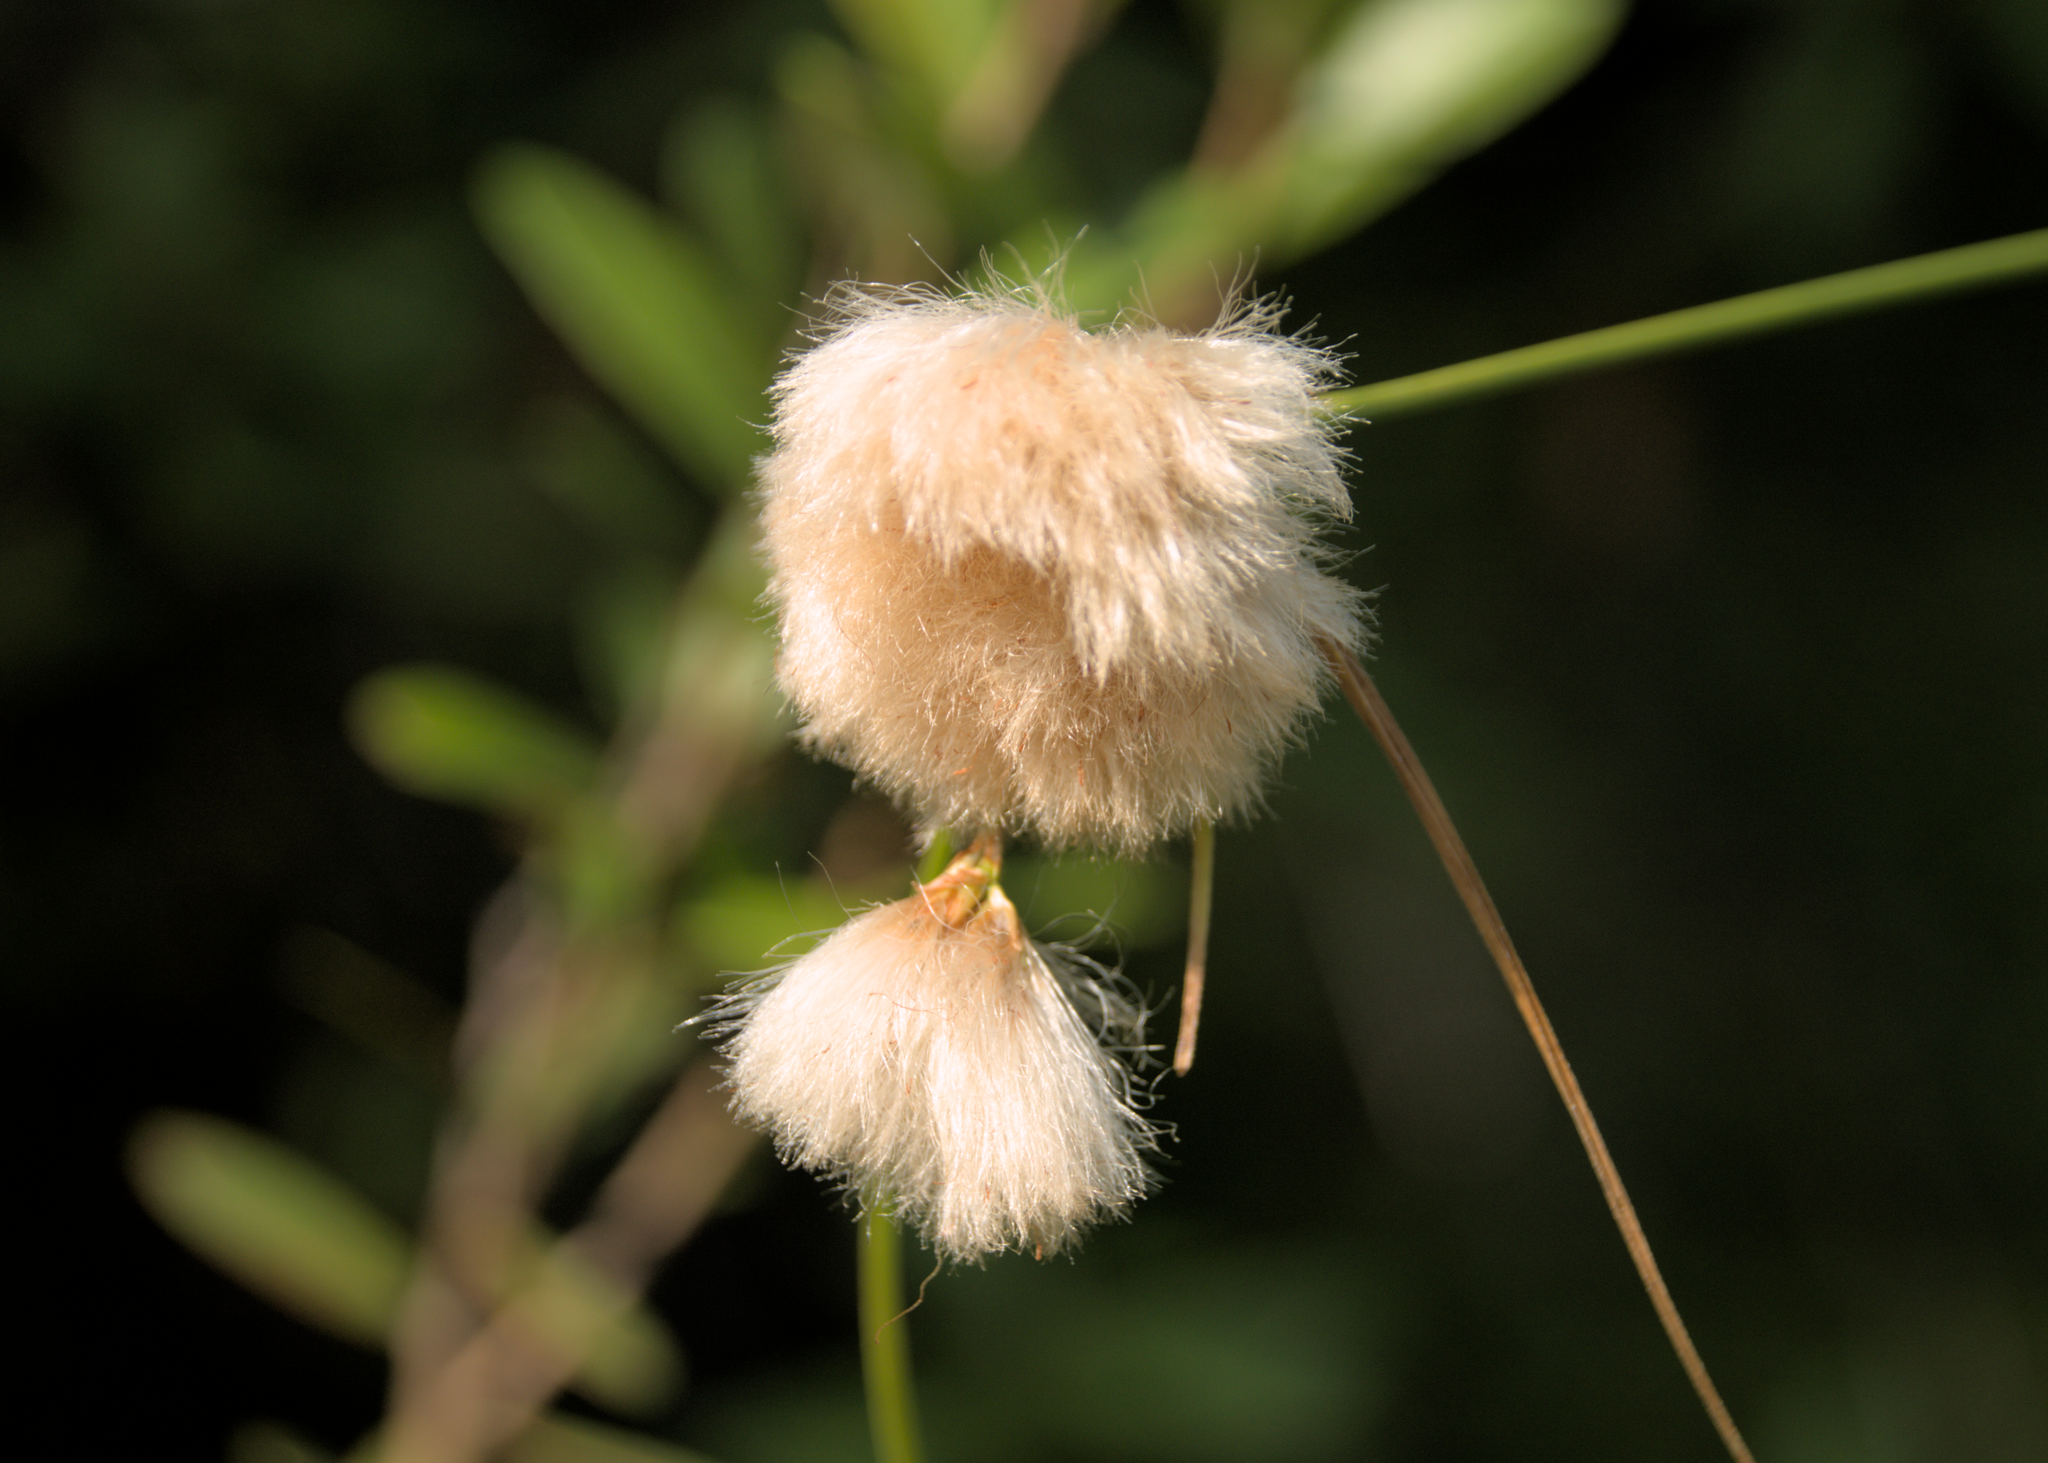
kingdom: Plantae
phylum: Tracheophyta
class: Liliopsida
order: Poales
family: Cyperaceae
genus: Eriophorum
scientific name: Eriophorum virginicum
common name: Tawny cottongrass
